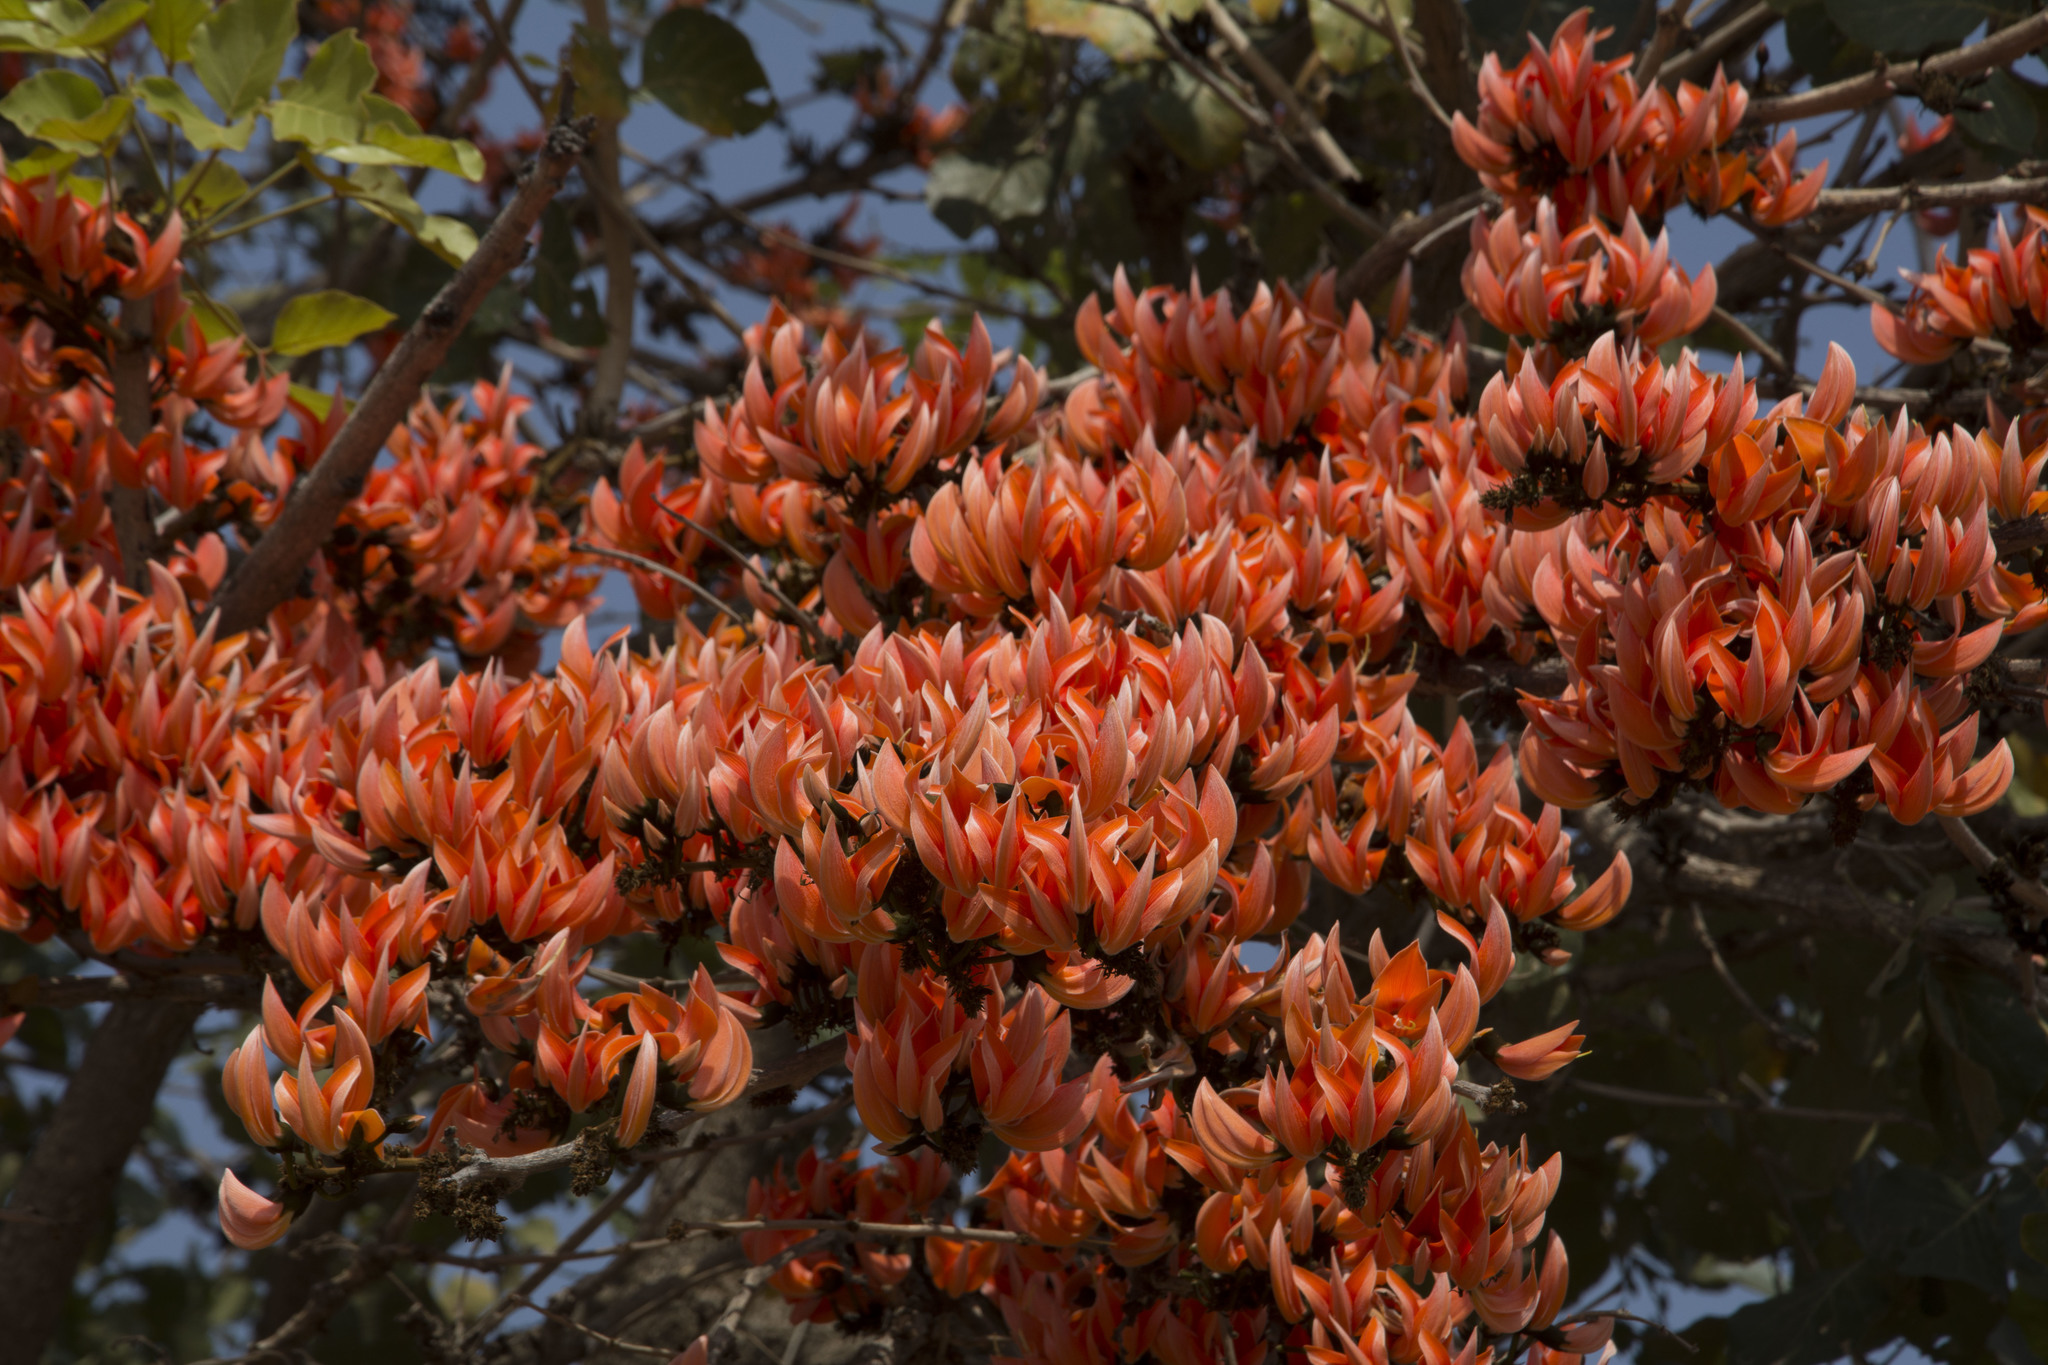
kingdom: Plantae
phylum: Tracheophyta
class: Magnoliopsida
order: Fabales
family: Fabaceae
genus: Butea
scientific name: Butea monosperma
